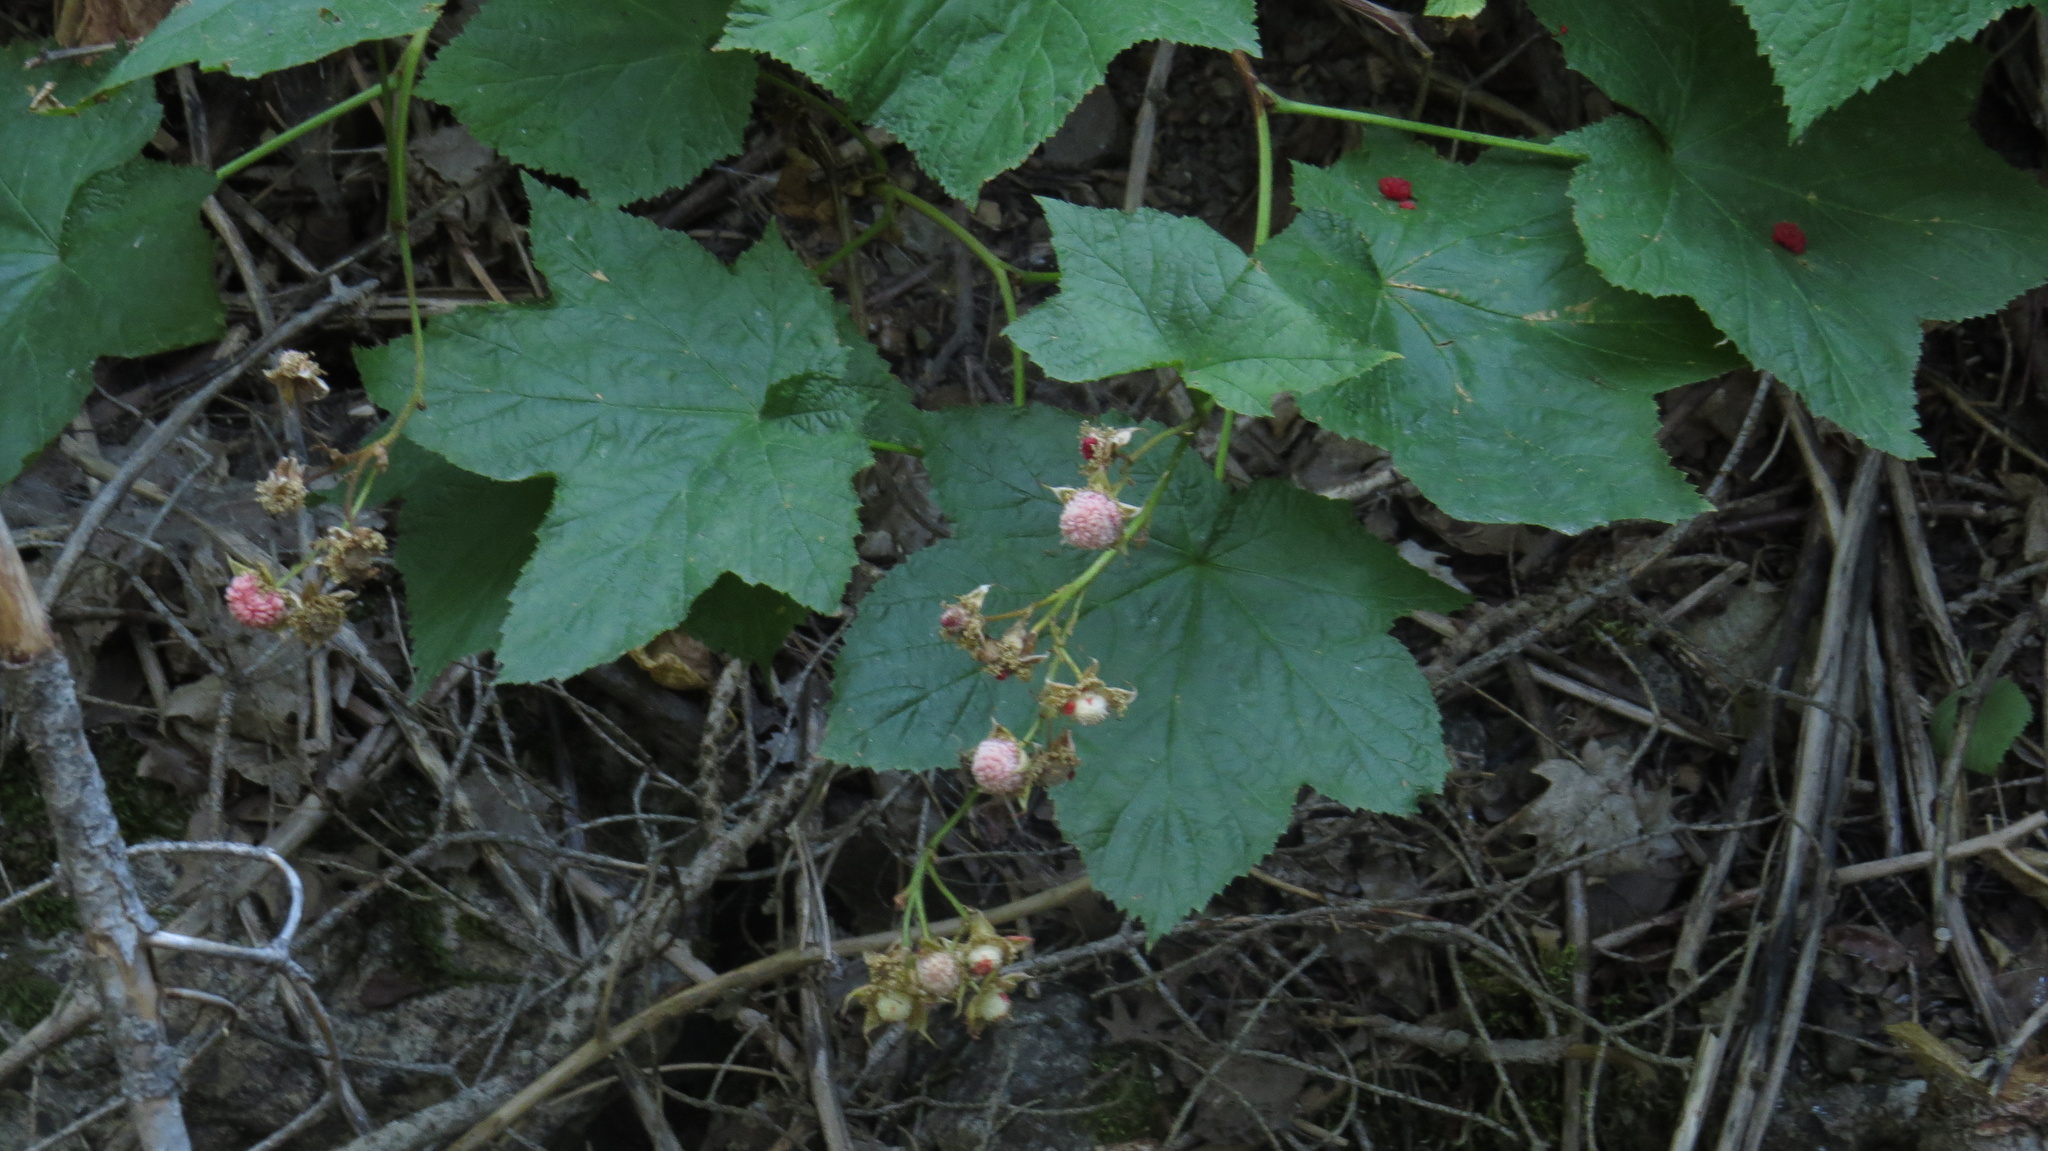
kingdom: Plantae
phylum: Tracheophyta
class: Magnoliopsida
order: Rosales
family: Rosaceae
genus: Rubus
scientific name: Rubus parviflorus
